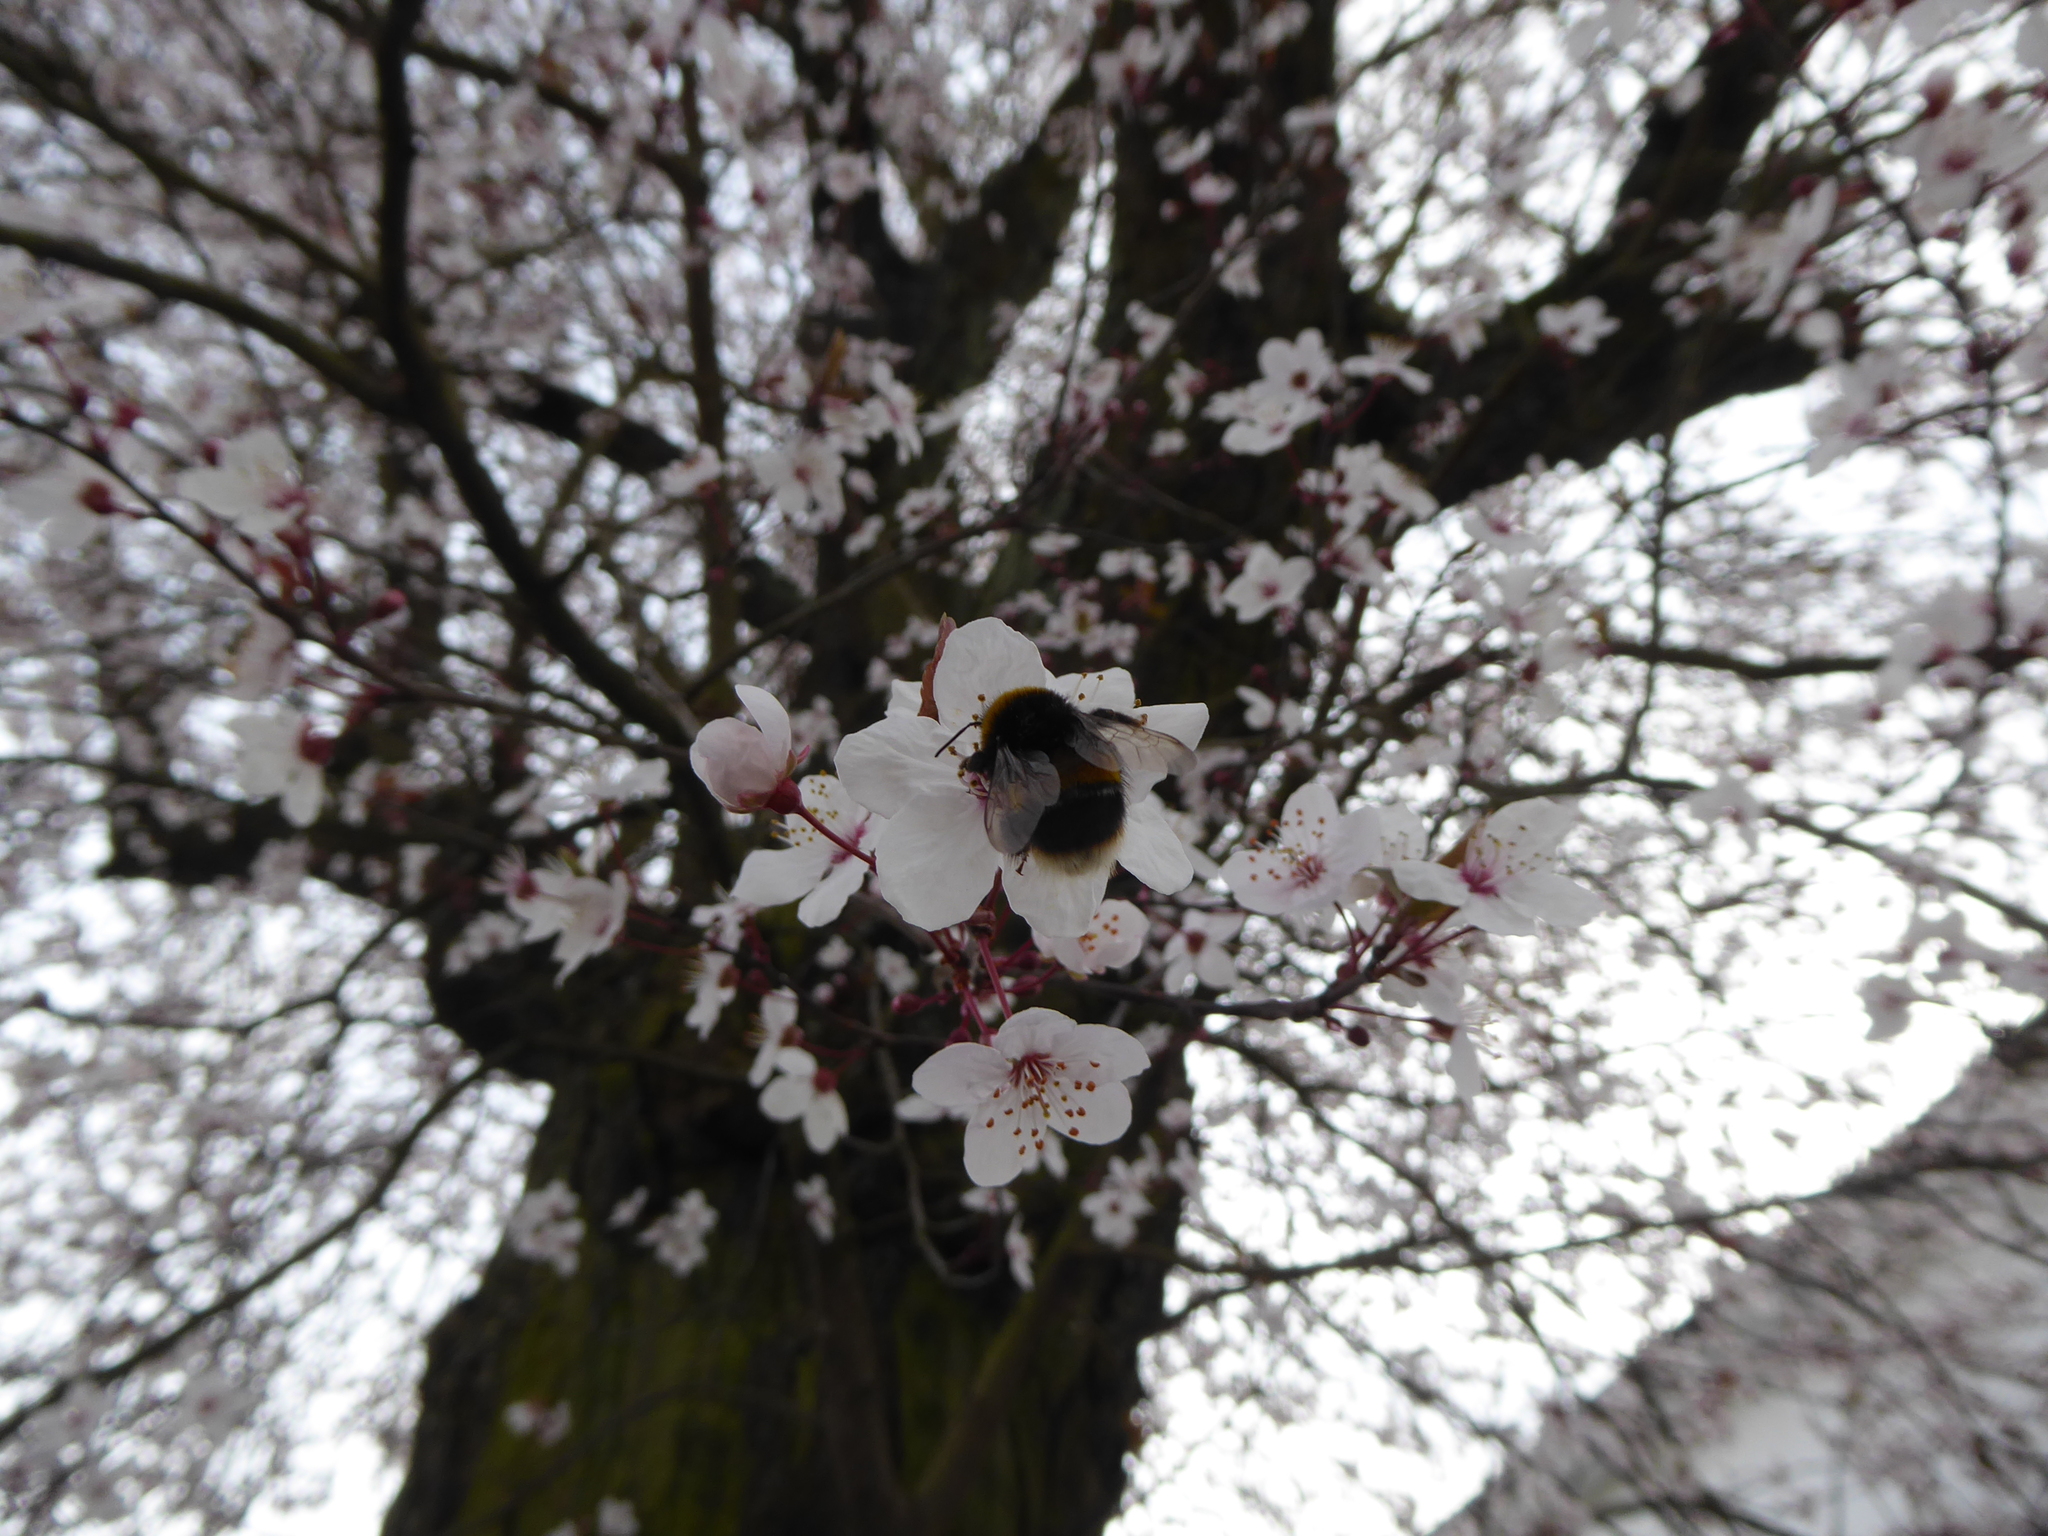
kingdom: Animalia
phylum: Arthropoda
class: Insecta
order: Hymenoptera
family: Apidae
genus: Bombus
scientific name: Bombus terrestris
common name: Buff-tailed bumblebee
